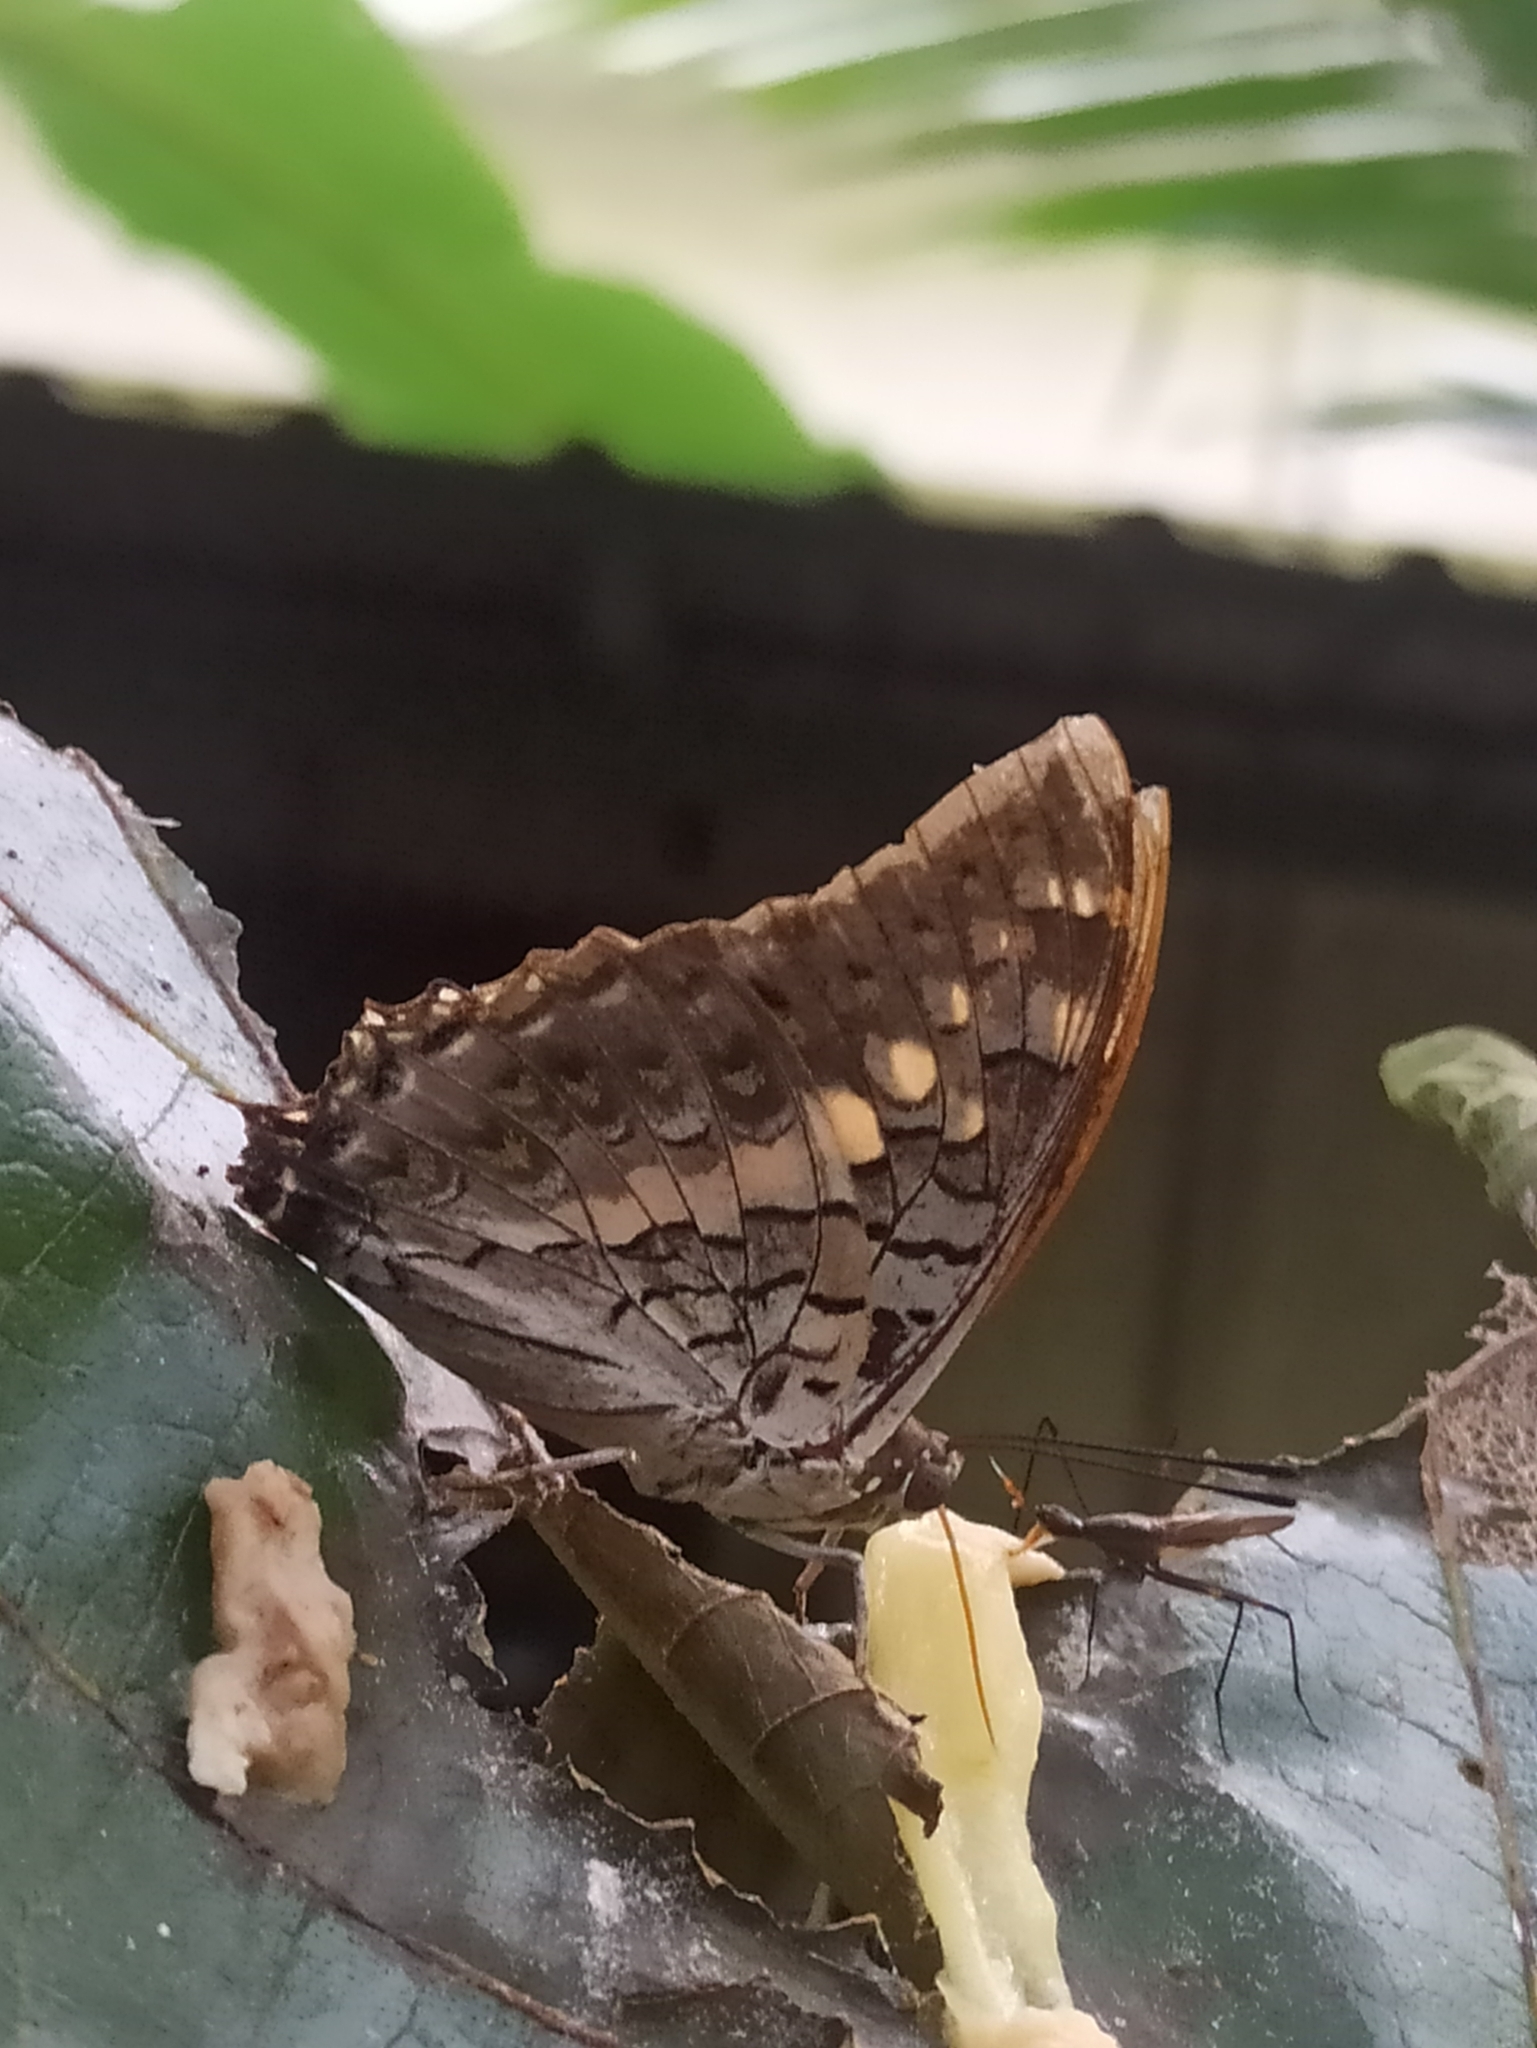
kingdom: Animalia
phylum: Arthropoda
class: Insecta
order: Lepidoptera
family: Nymphalidae
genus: Charaxes
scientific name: Charaxes solon
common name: Black rajah
